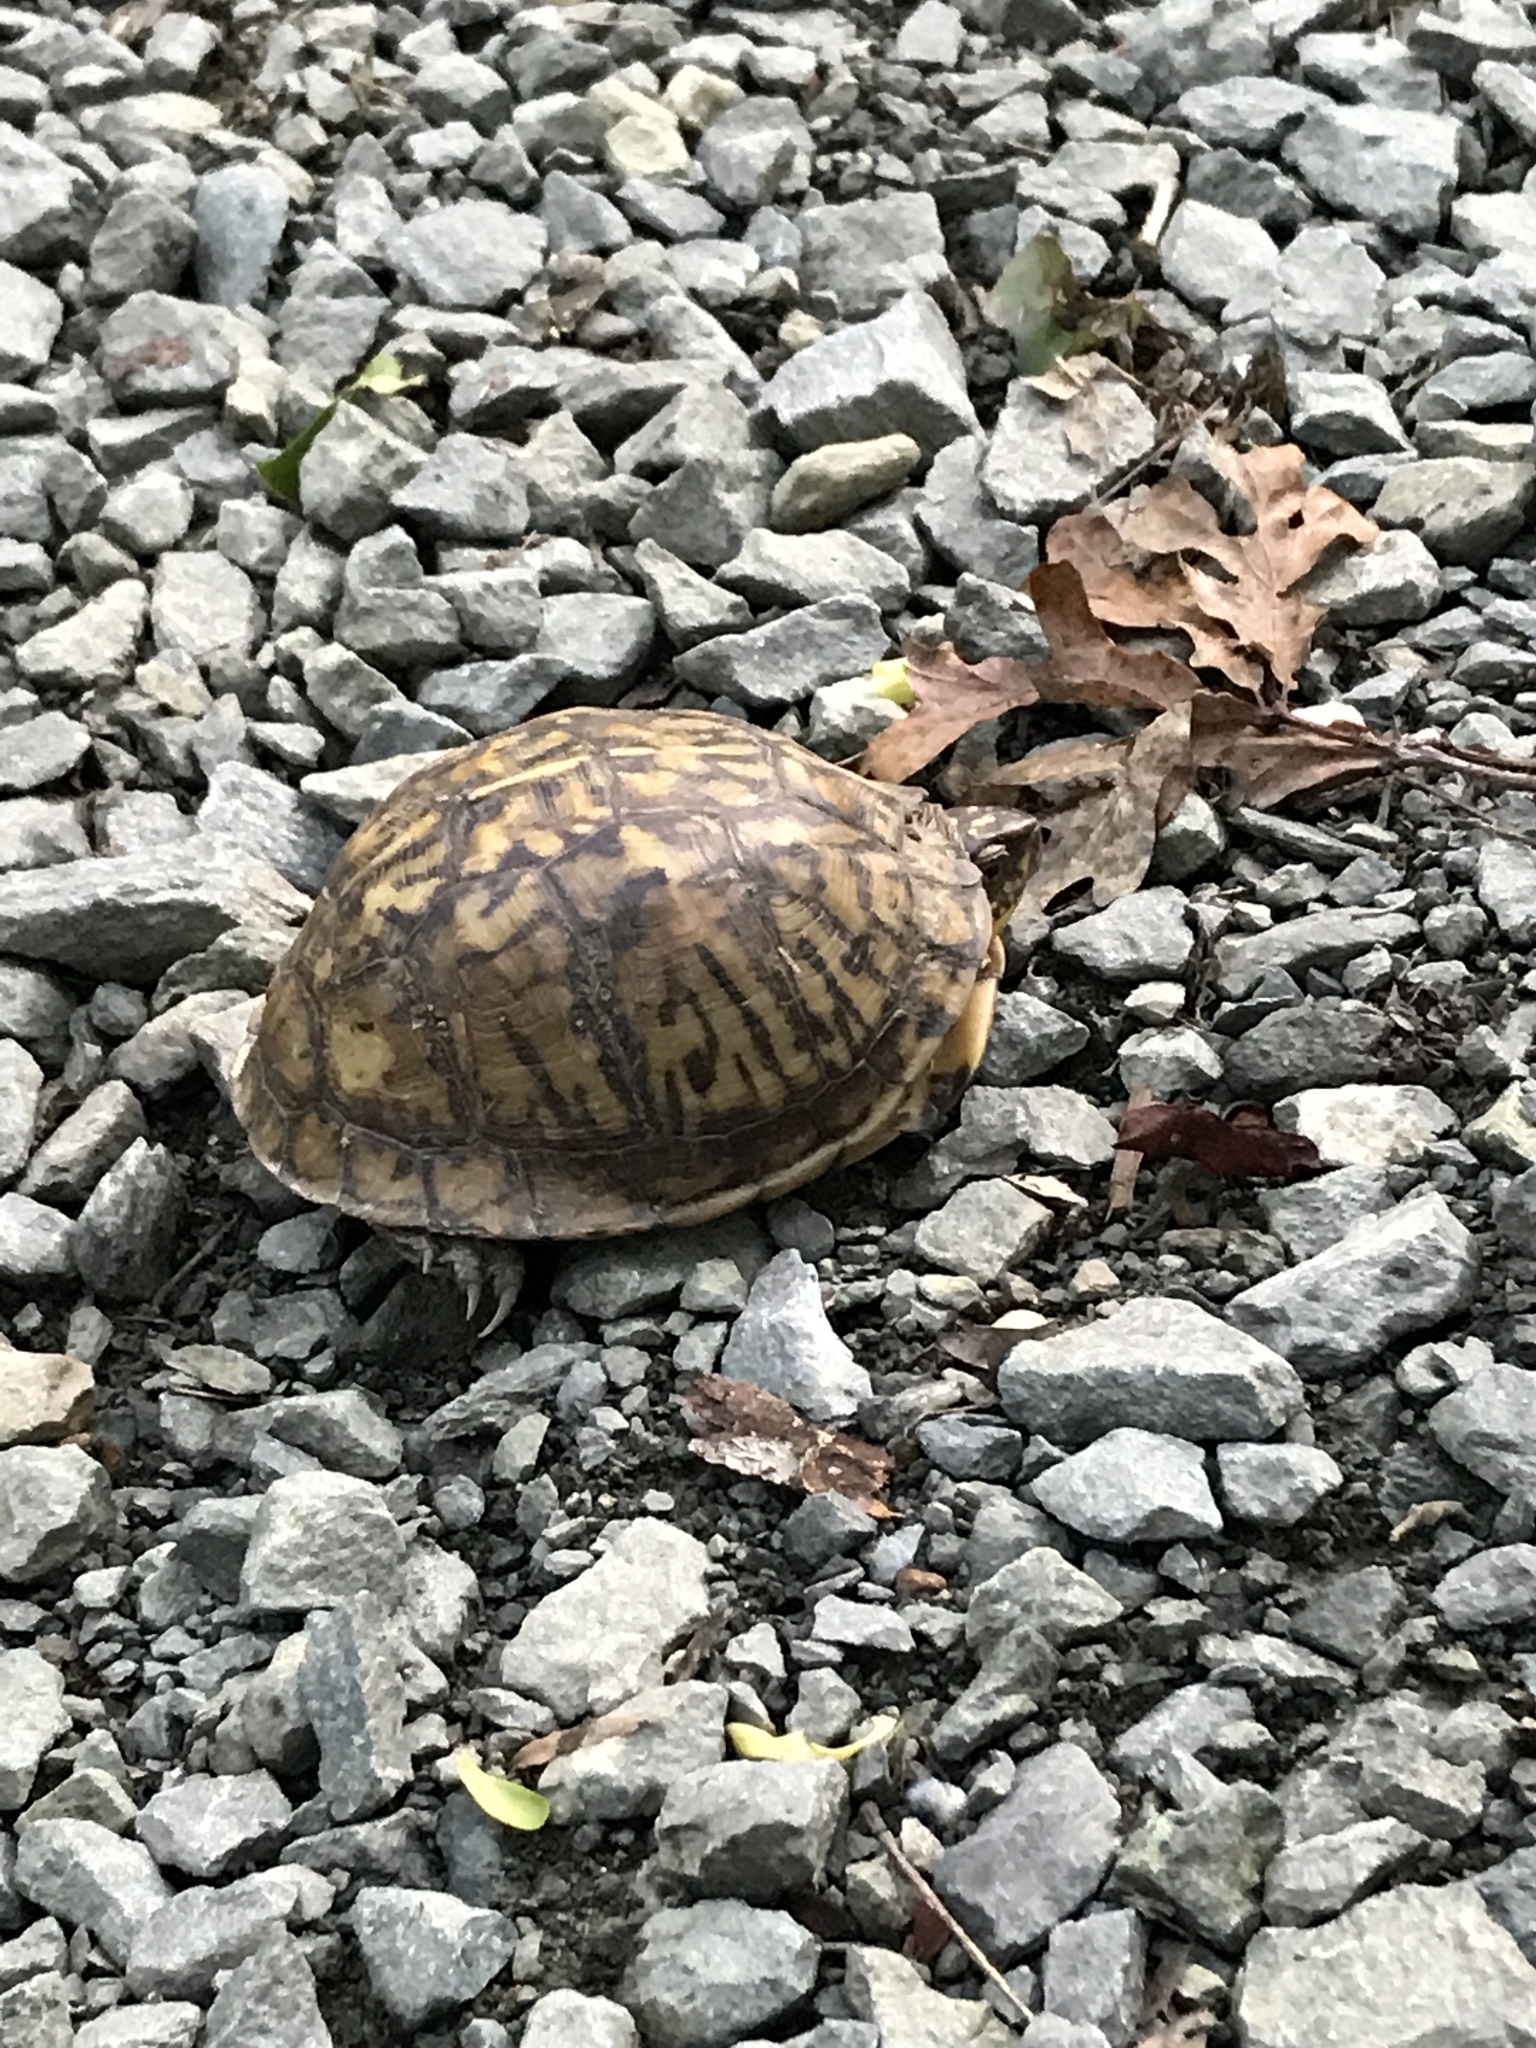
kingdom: Animalia
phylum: Chordata
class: Testudines
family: Emydidae
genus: Terrapene
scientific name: Terrapene carolina
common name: Common box turtle
